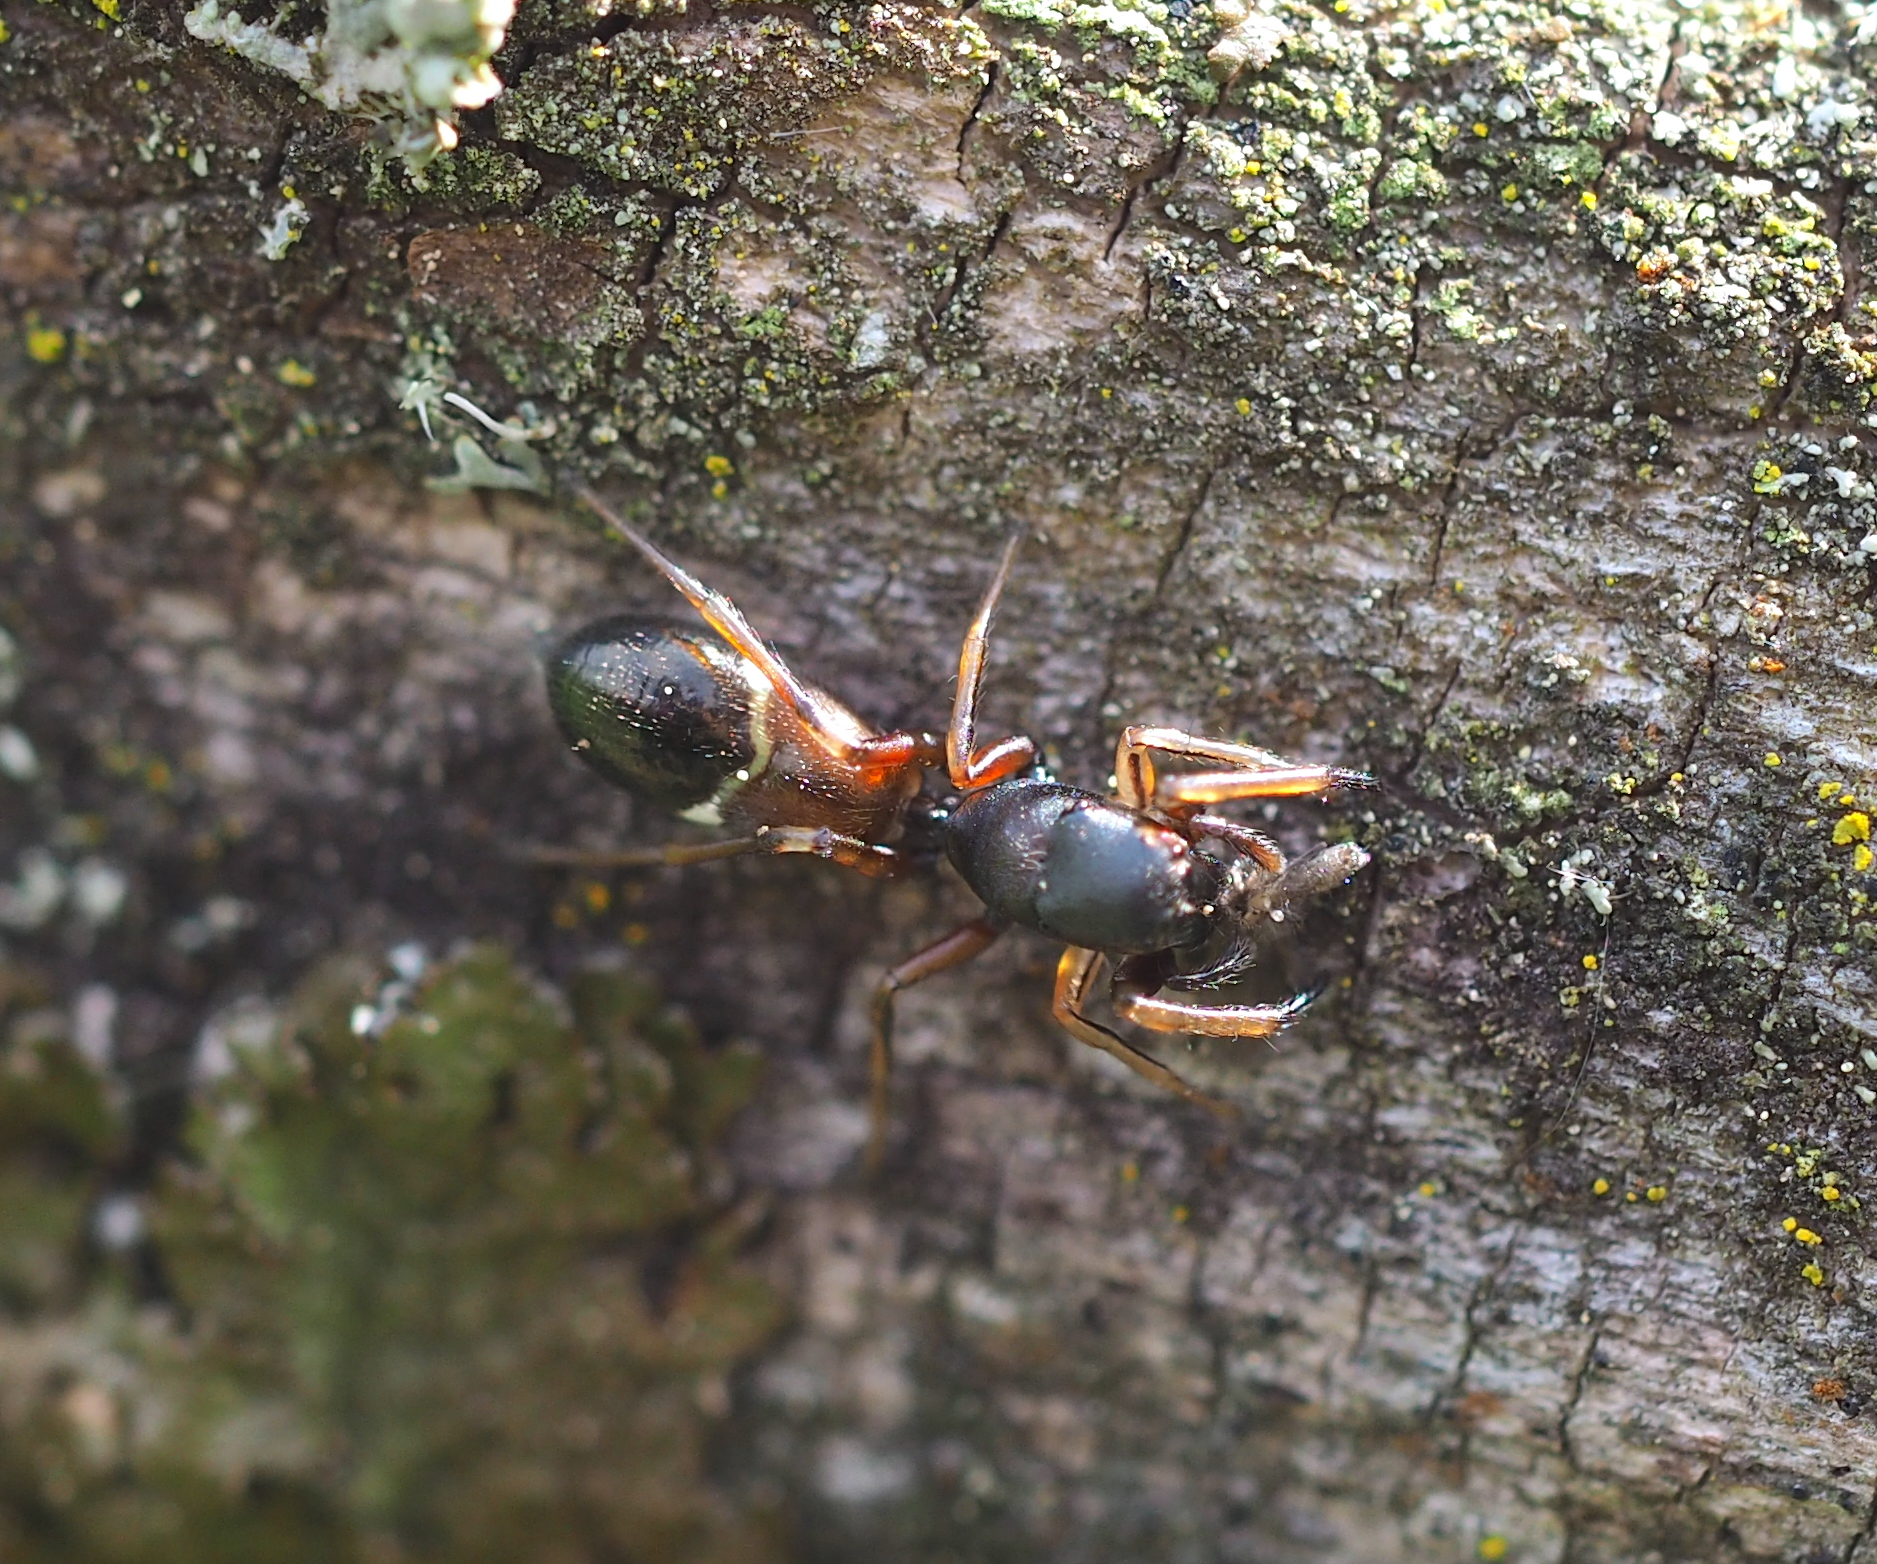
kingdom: Animalia
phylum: Arthropoda
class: Arachnida
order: Araneae
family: Salticidae
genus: Leptorchestes
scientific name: Leptorchestes berolinensis
